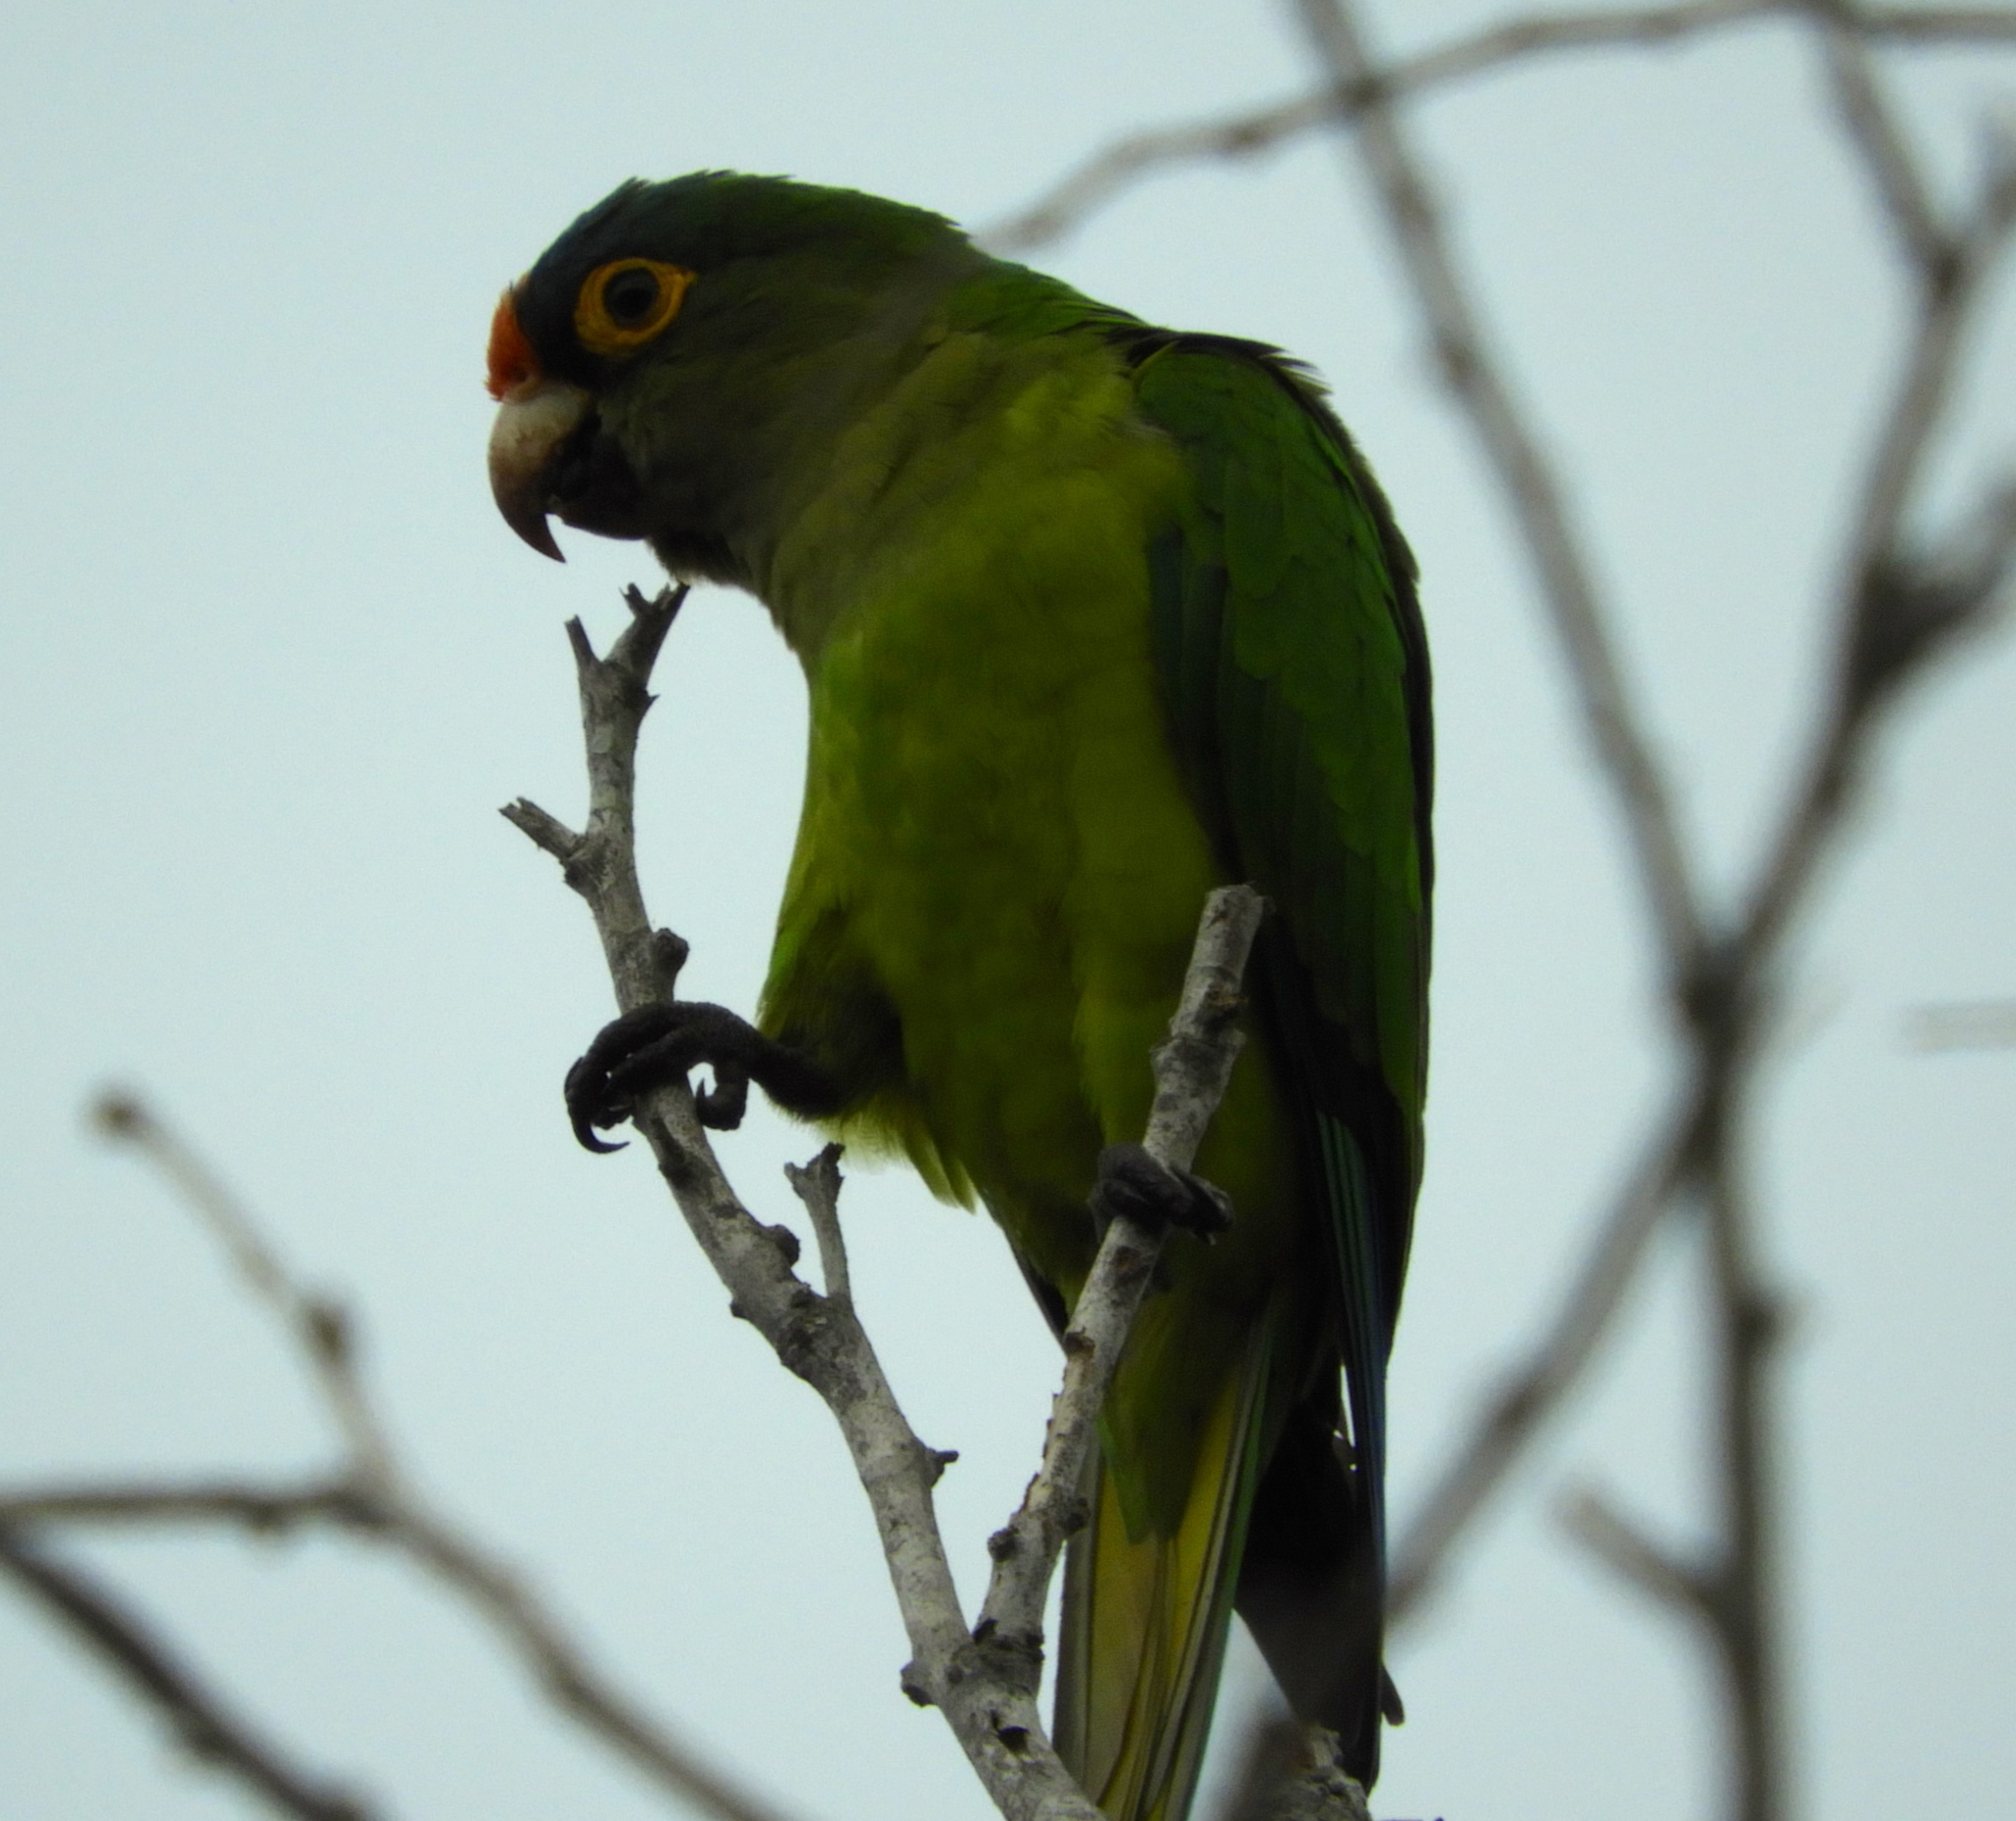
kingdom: Animalia
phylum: Chordata
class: Aves
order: Psittaciformes
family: Psittacidae
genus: Aratinga
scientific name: Aratinga canicularis
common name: Orange-fronted parakeet
